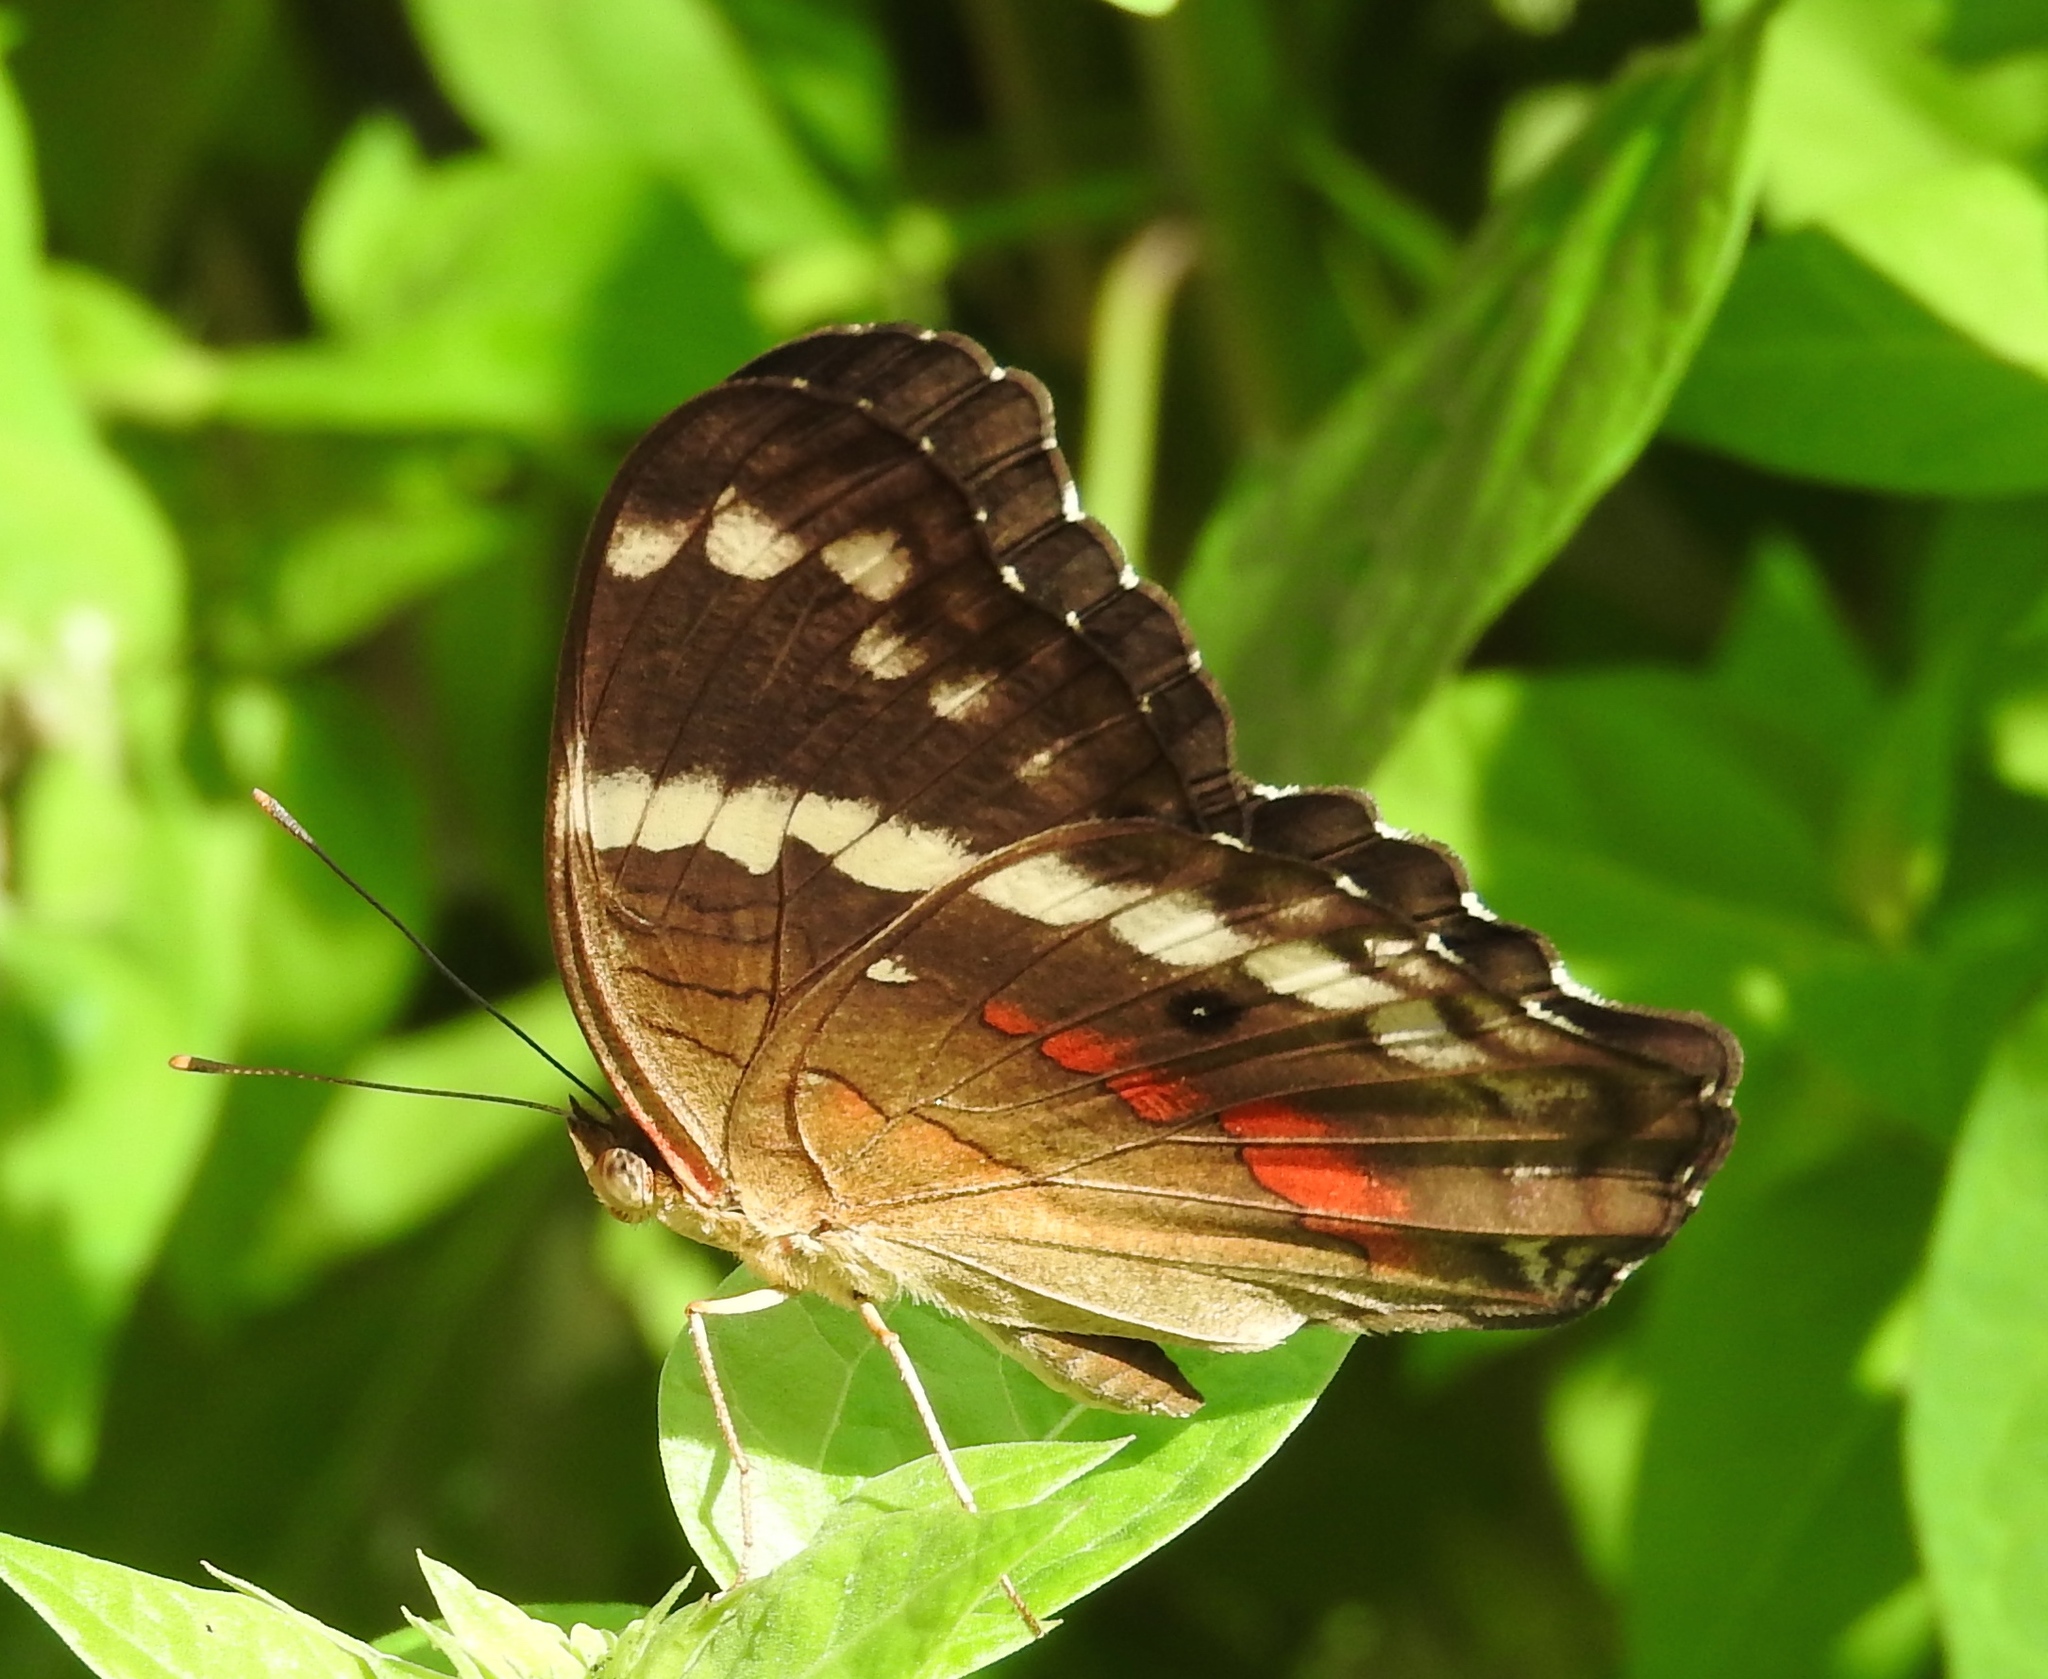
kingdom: Animalia
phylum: Arthropoda
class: Insecta
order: Lepidoptera
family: Nymphalidae
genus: Anartia
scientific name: Anartia fatima
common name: Banded peacock
